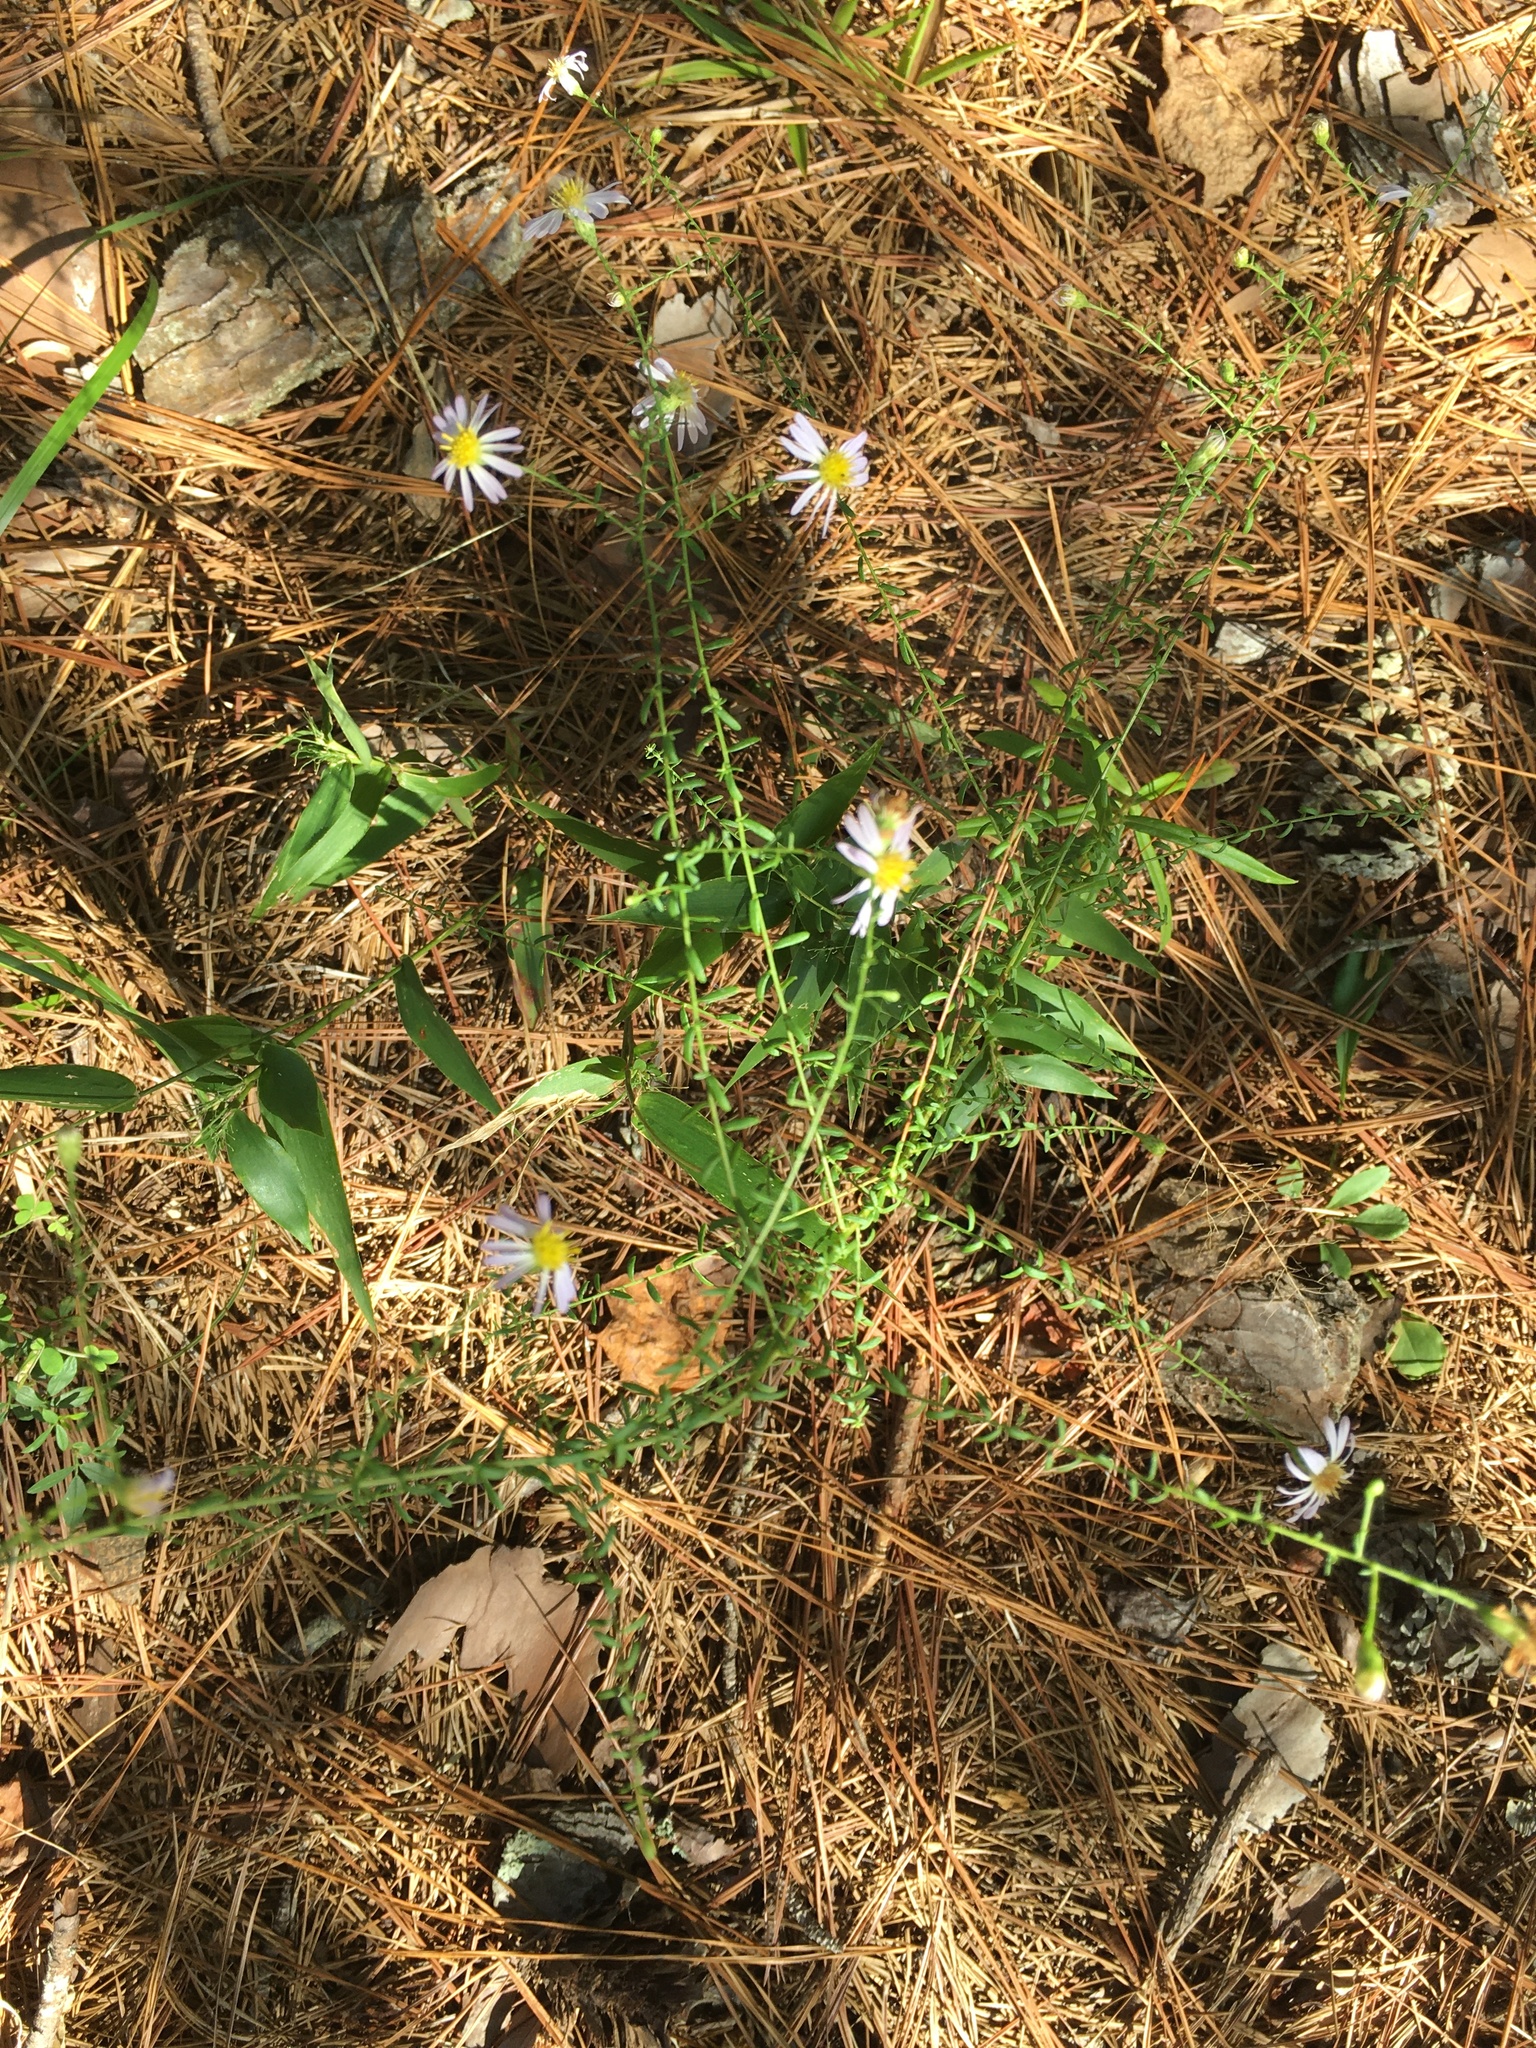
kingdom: Plantae
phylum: Tracheophyta
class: Magnoliopsida
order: Asterales
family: Asteraceae
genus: Symphyotrichum
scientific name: Symphyotrichum dumosum
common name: Bushy aster
